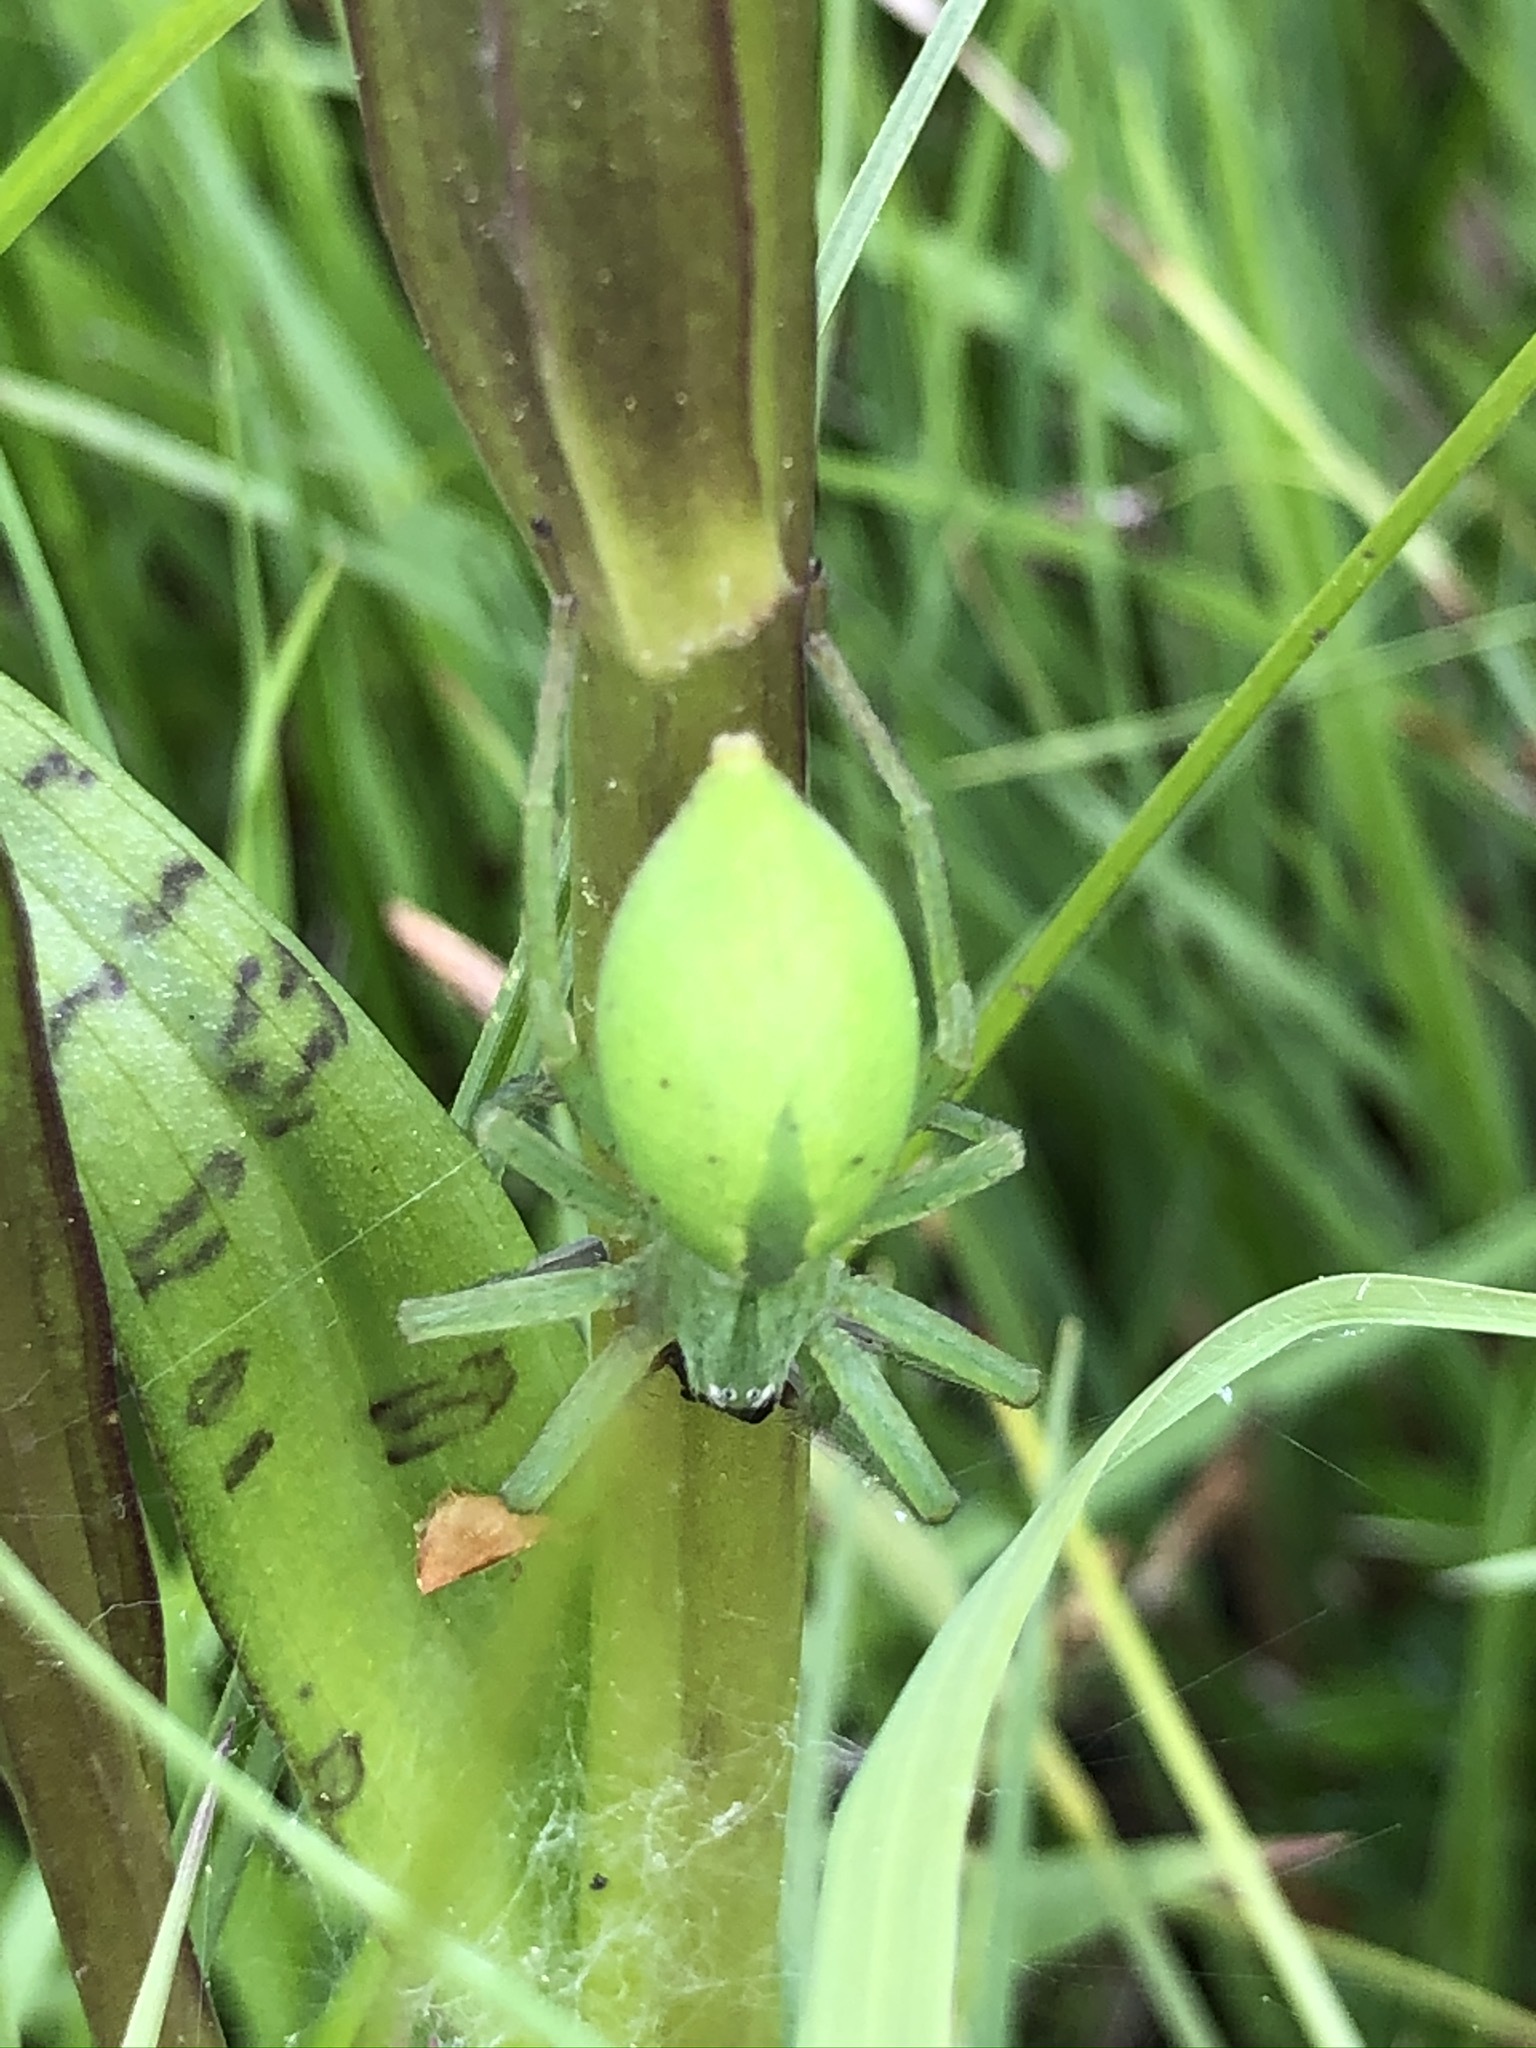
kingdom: Animalia
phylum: Arthropoda
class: Arachnida
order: Araneae
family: Sparassidae
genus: Micrommata
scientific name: Micrommata virescens
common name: Green spider
